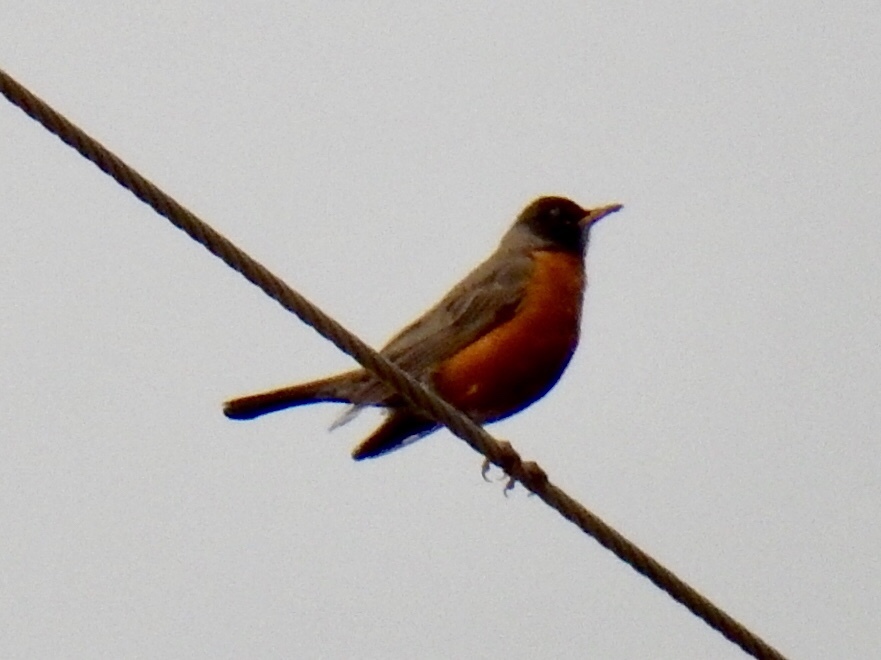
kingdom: Animalia
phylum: Chordata
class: Aves
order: Passeriformes
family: Turdidae
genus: Turdus
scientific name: Turdus migratorius
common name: American robin
